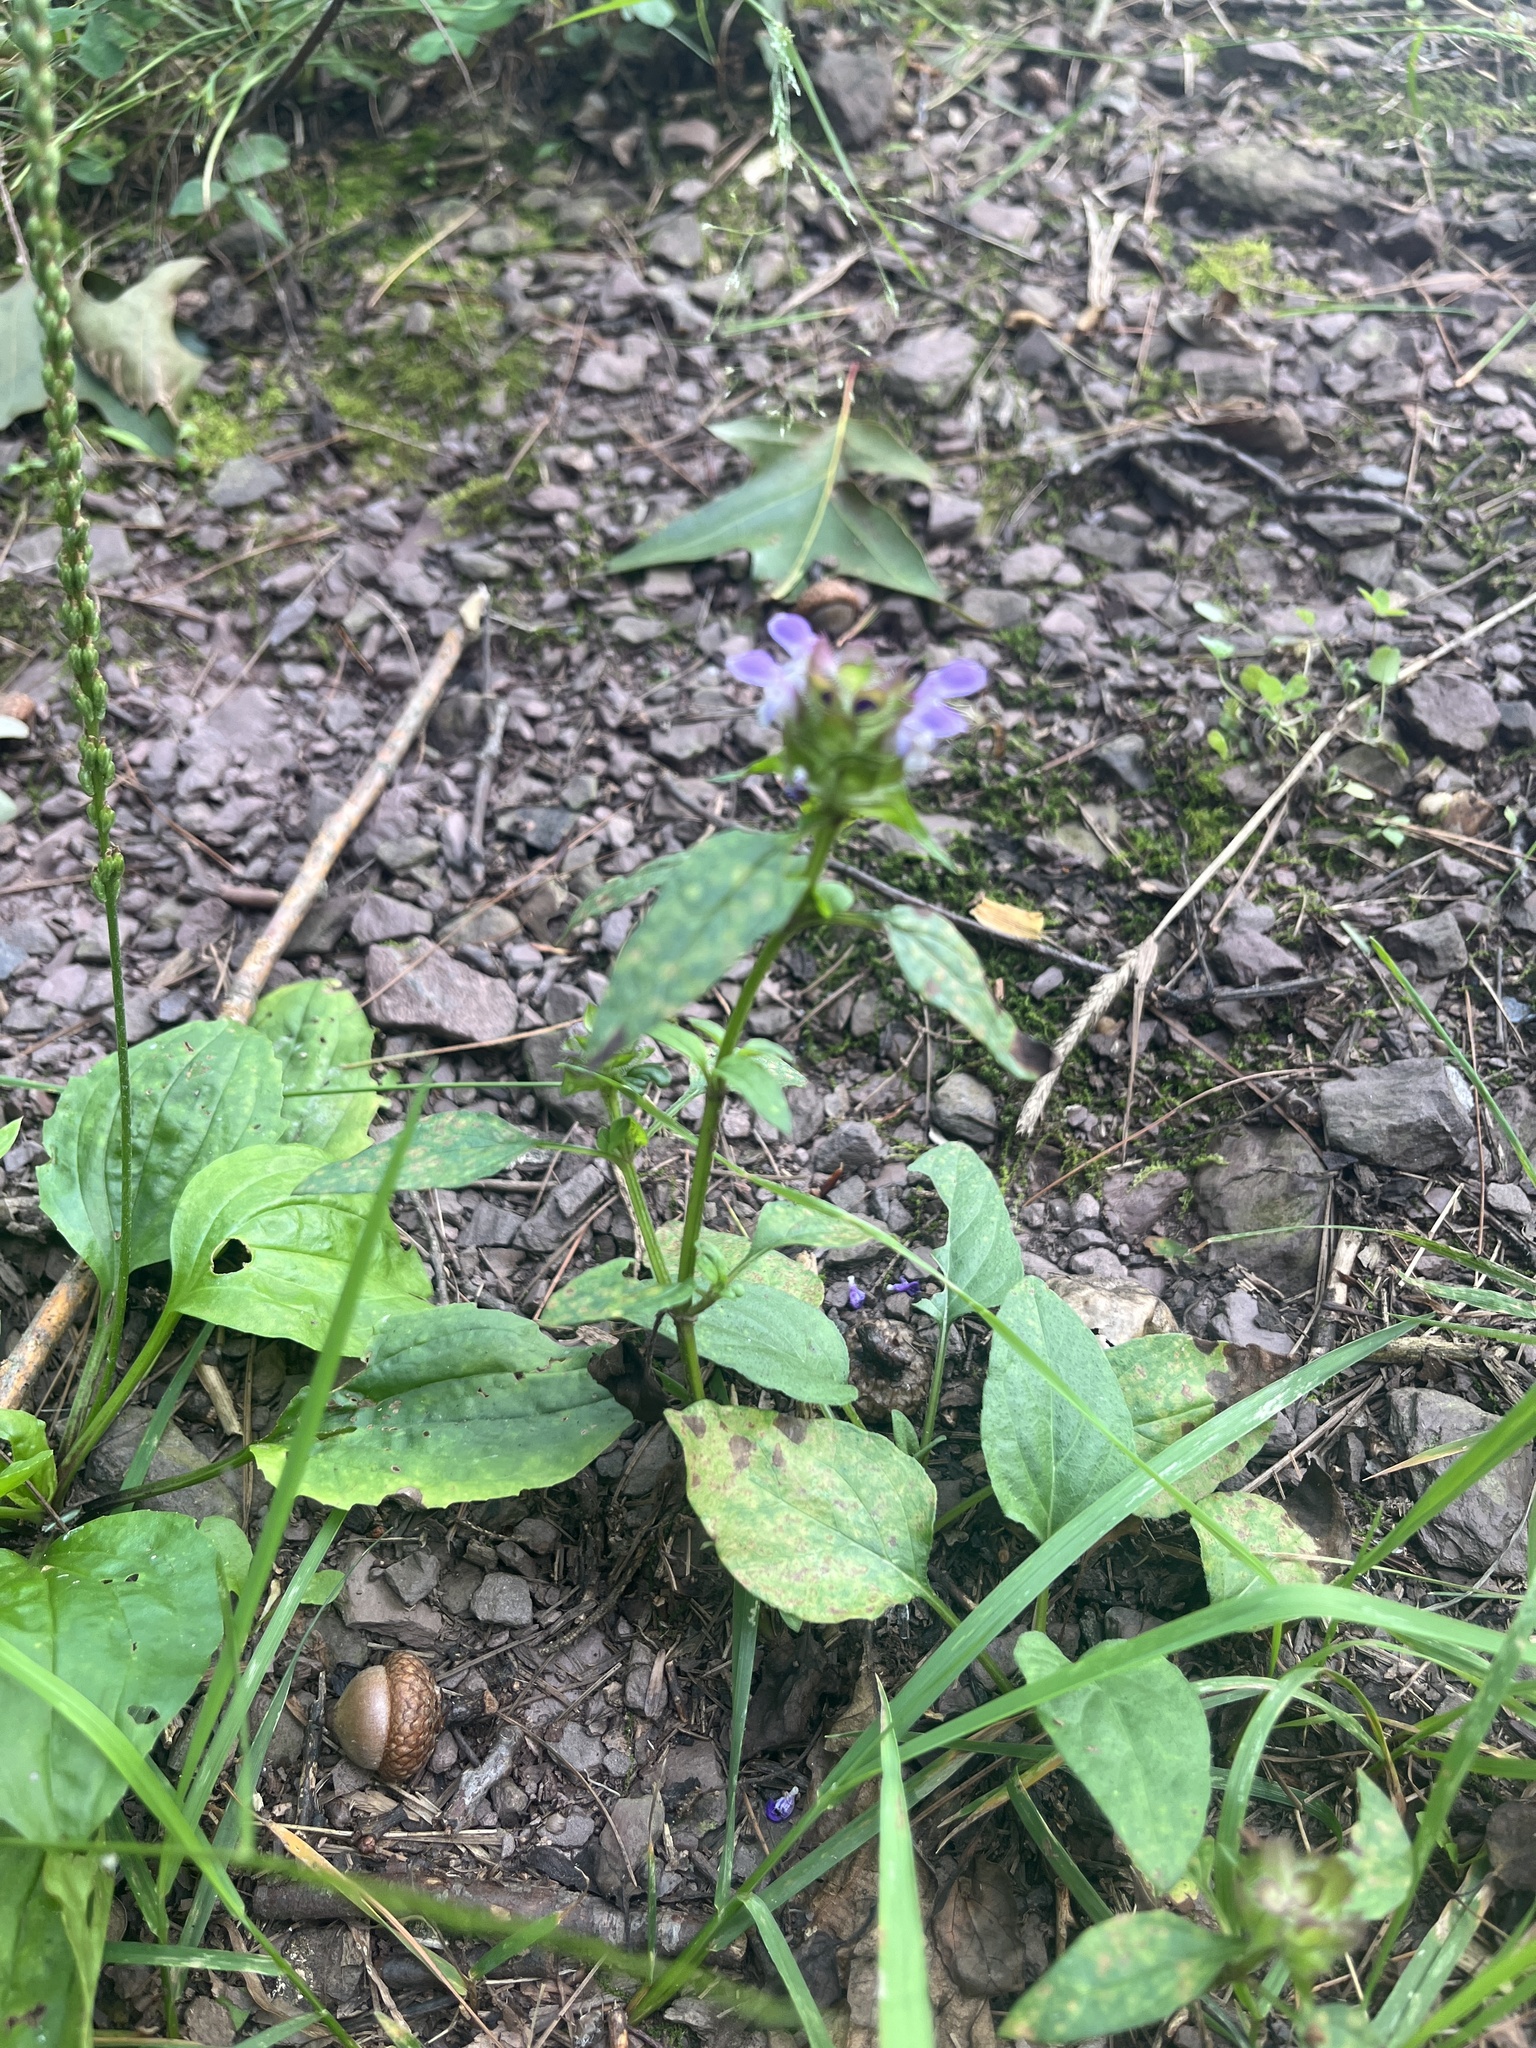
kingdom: Plantae
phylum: Tracheophyta
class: Magnoliopsida
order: Lamiales
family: Lamiaceae
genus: Prunella
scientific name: Prunella vulgaris
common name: Heal-all
